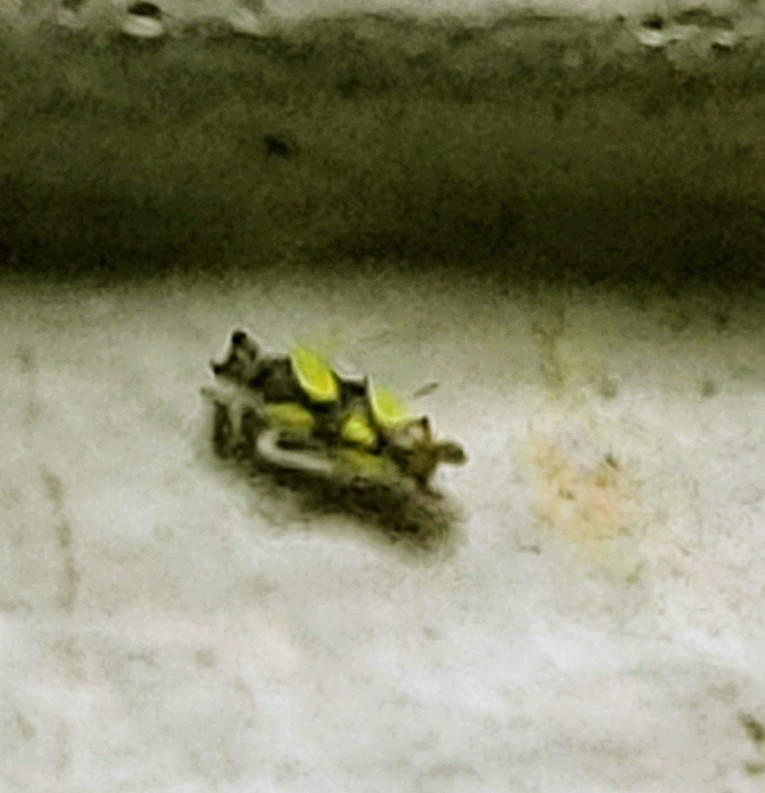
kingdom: Animalia
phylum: Arthropoda
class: Insecta
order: Hemiptera
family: Cicadellidae
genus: Protalebrella
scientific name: Protalebrella brasiliensis
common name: Brasilian leafhopper
